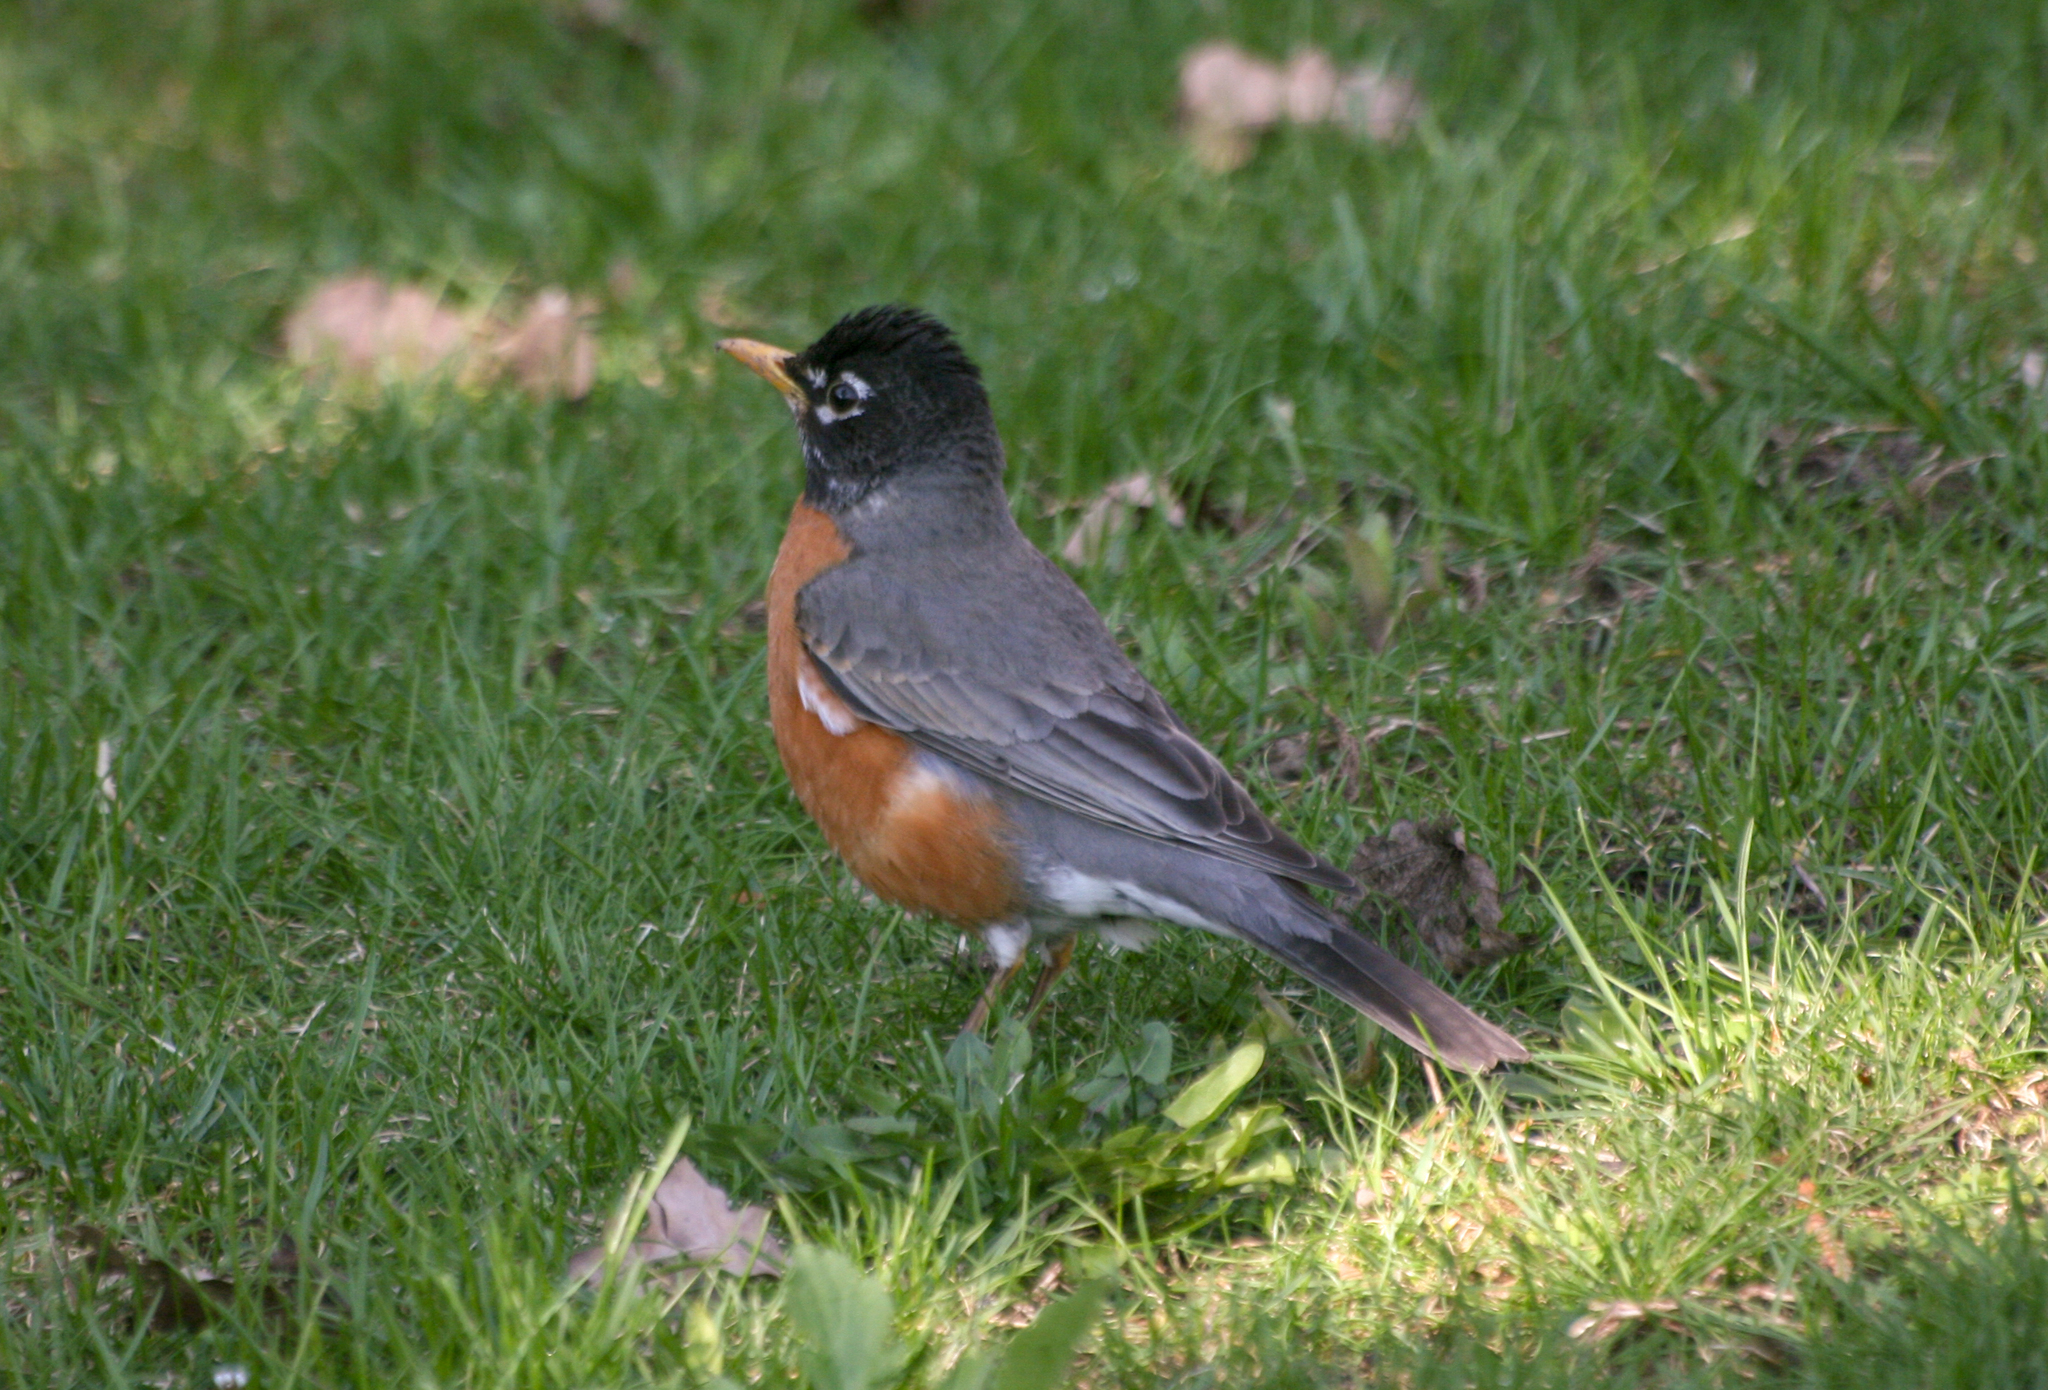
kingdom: Animalia
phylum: Chordata
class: Aves
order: Passeriformes
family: Turdidae
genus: Turdus
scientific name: Turdus migratorius
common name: American robin
